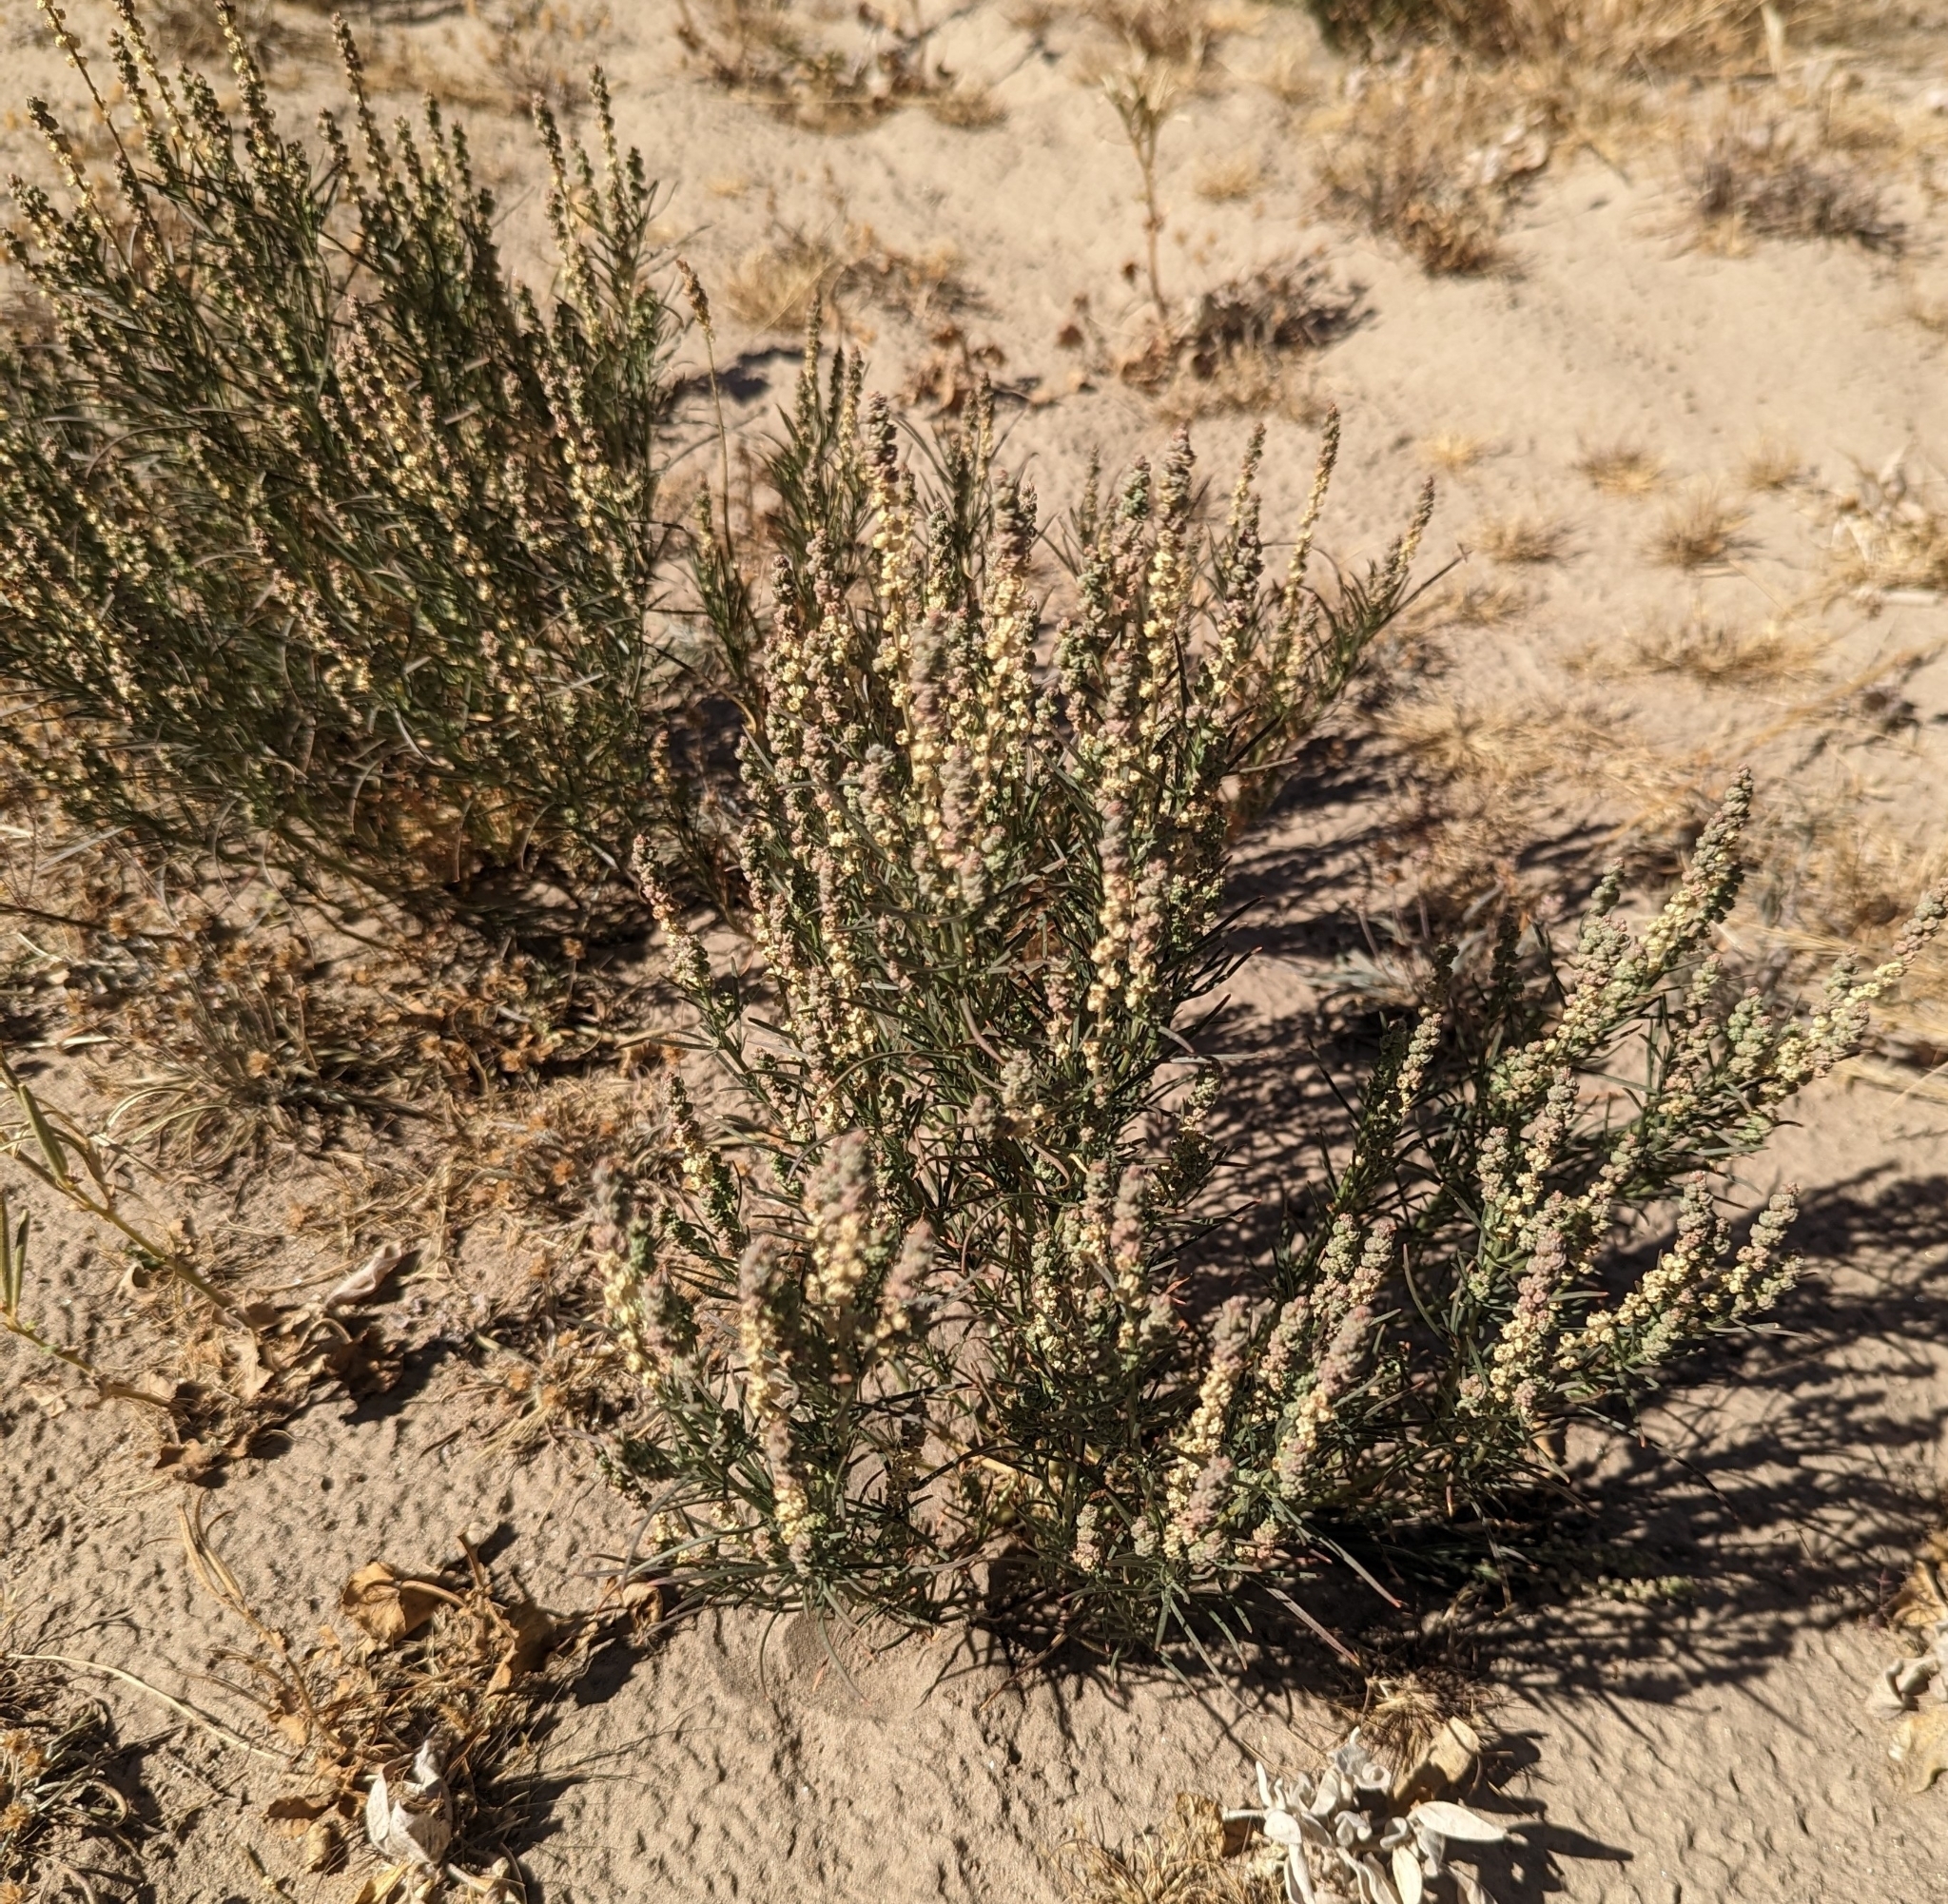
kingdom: Plantae
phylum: Tracheophyta
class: Magnoliopsida
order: Brassicales
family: Resedaceae
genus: Oligomeris
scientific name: Oligomeris linifolia
